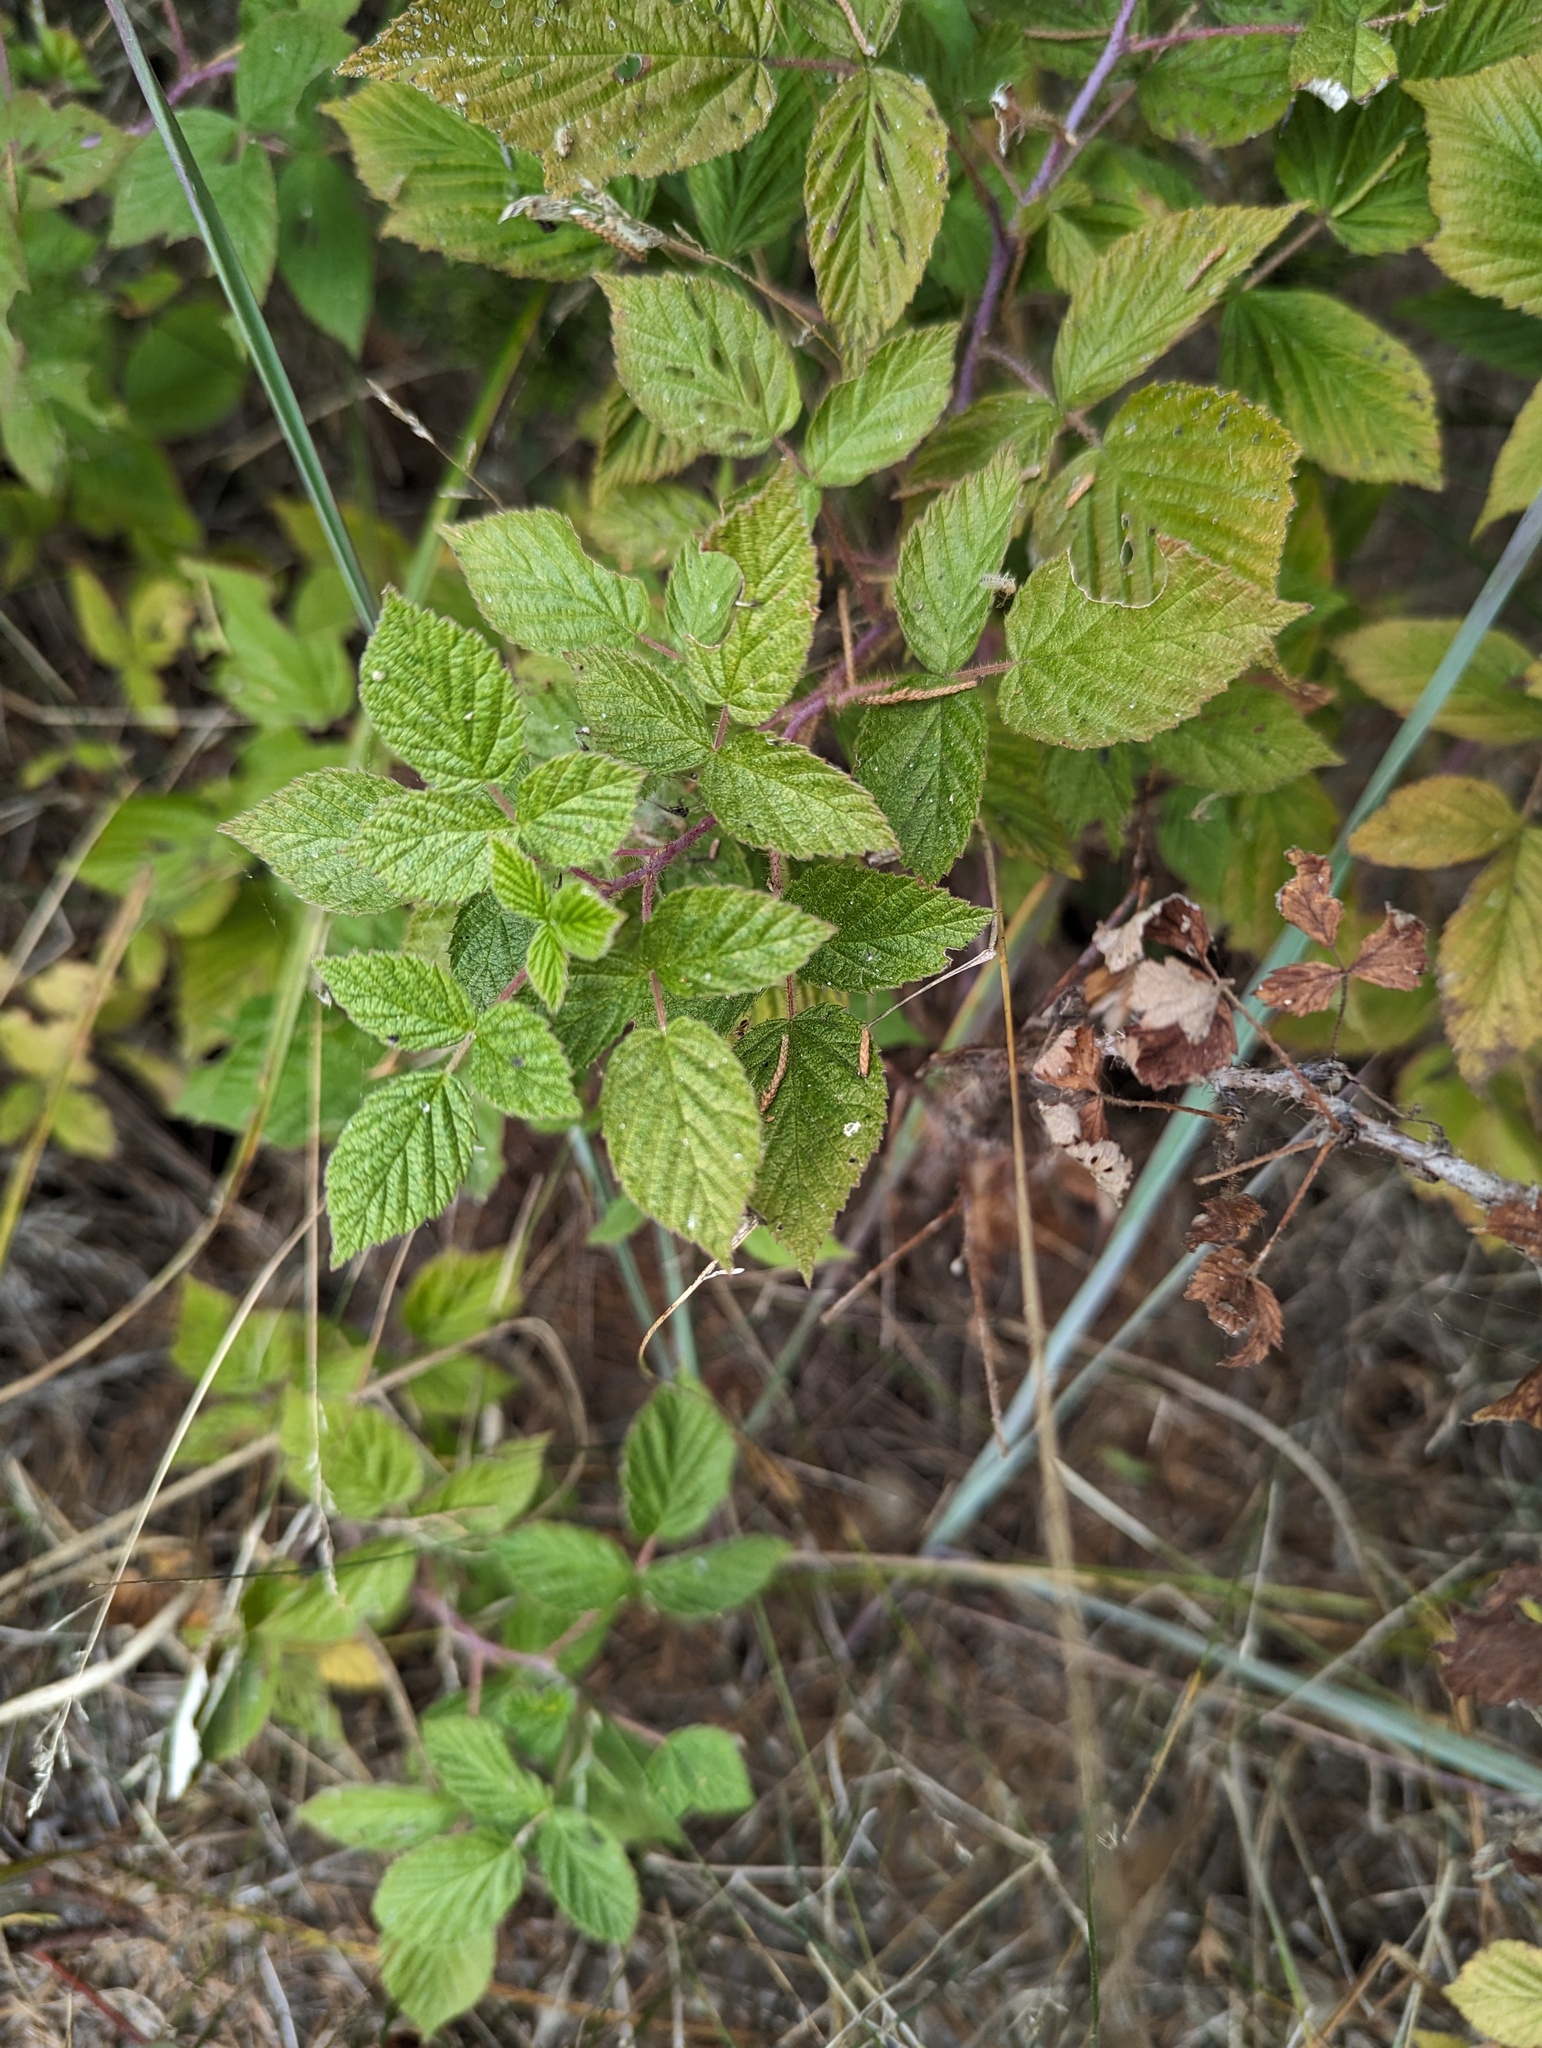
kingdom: Plantae
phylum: Tracheophyta
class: Magnoliopsida
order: Rosales
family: Rosaceae
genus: Rubus
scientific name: Rubus idaeus
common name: Raspberry
